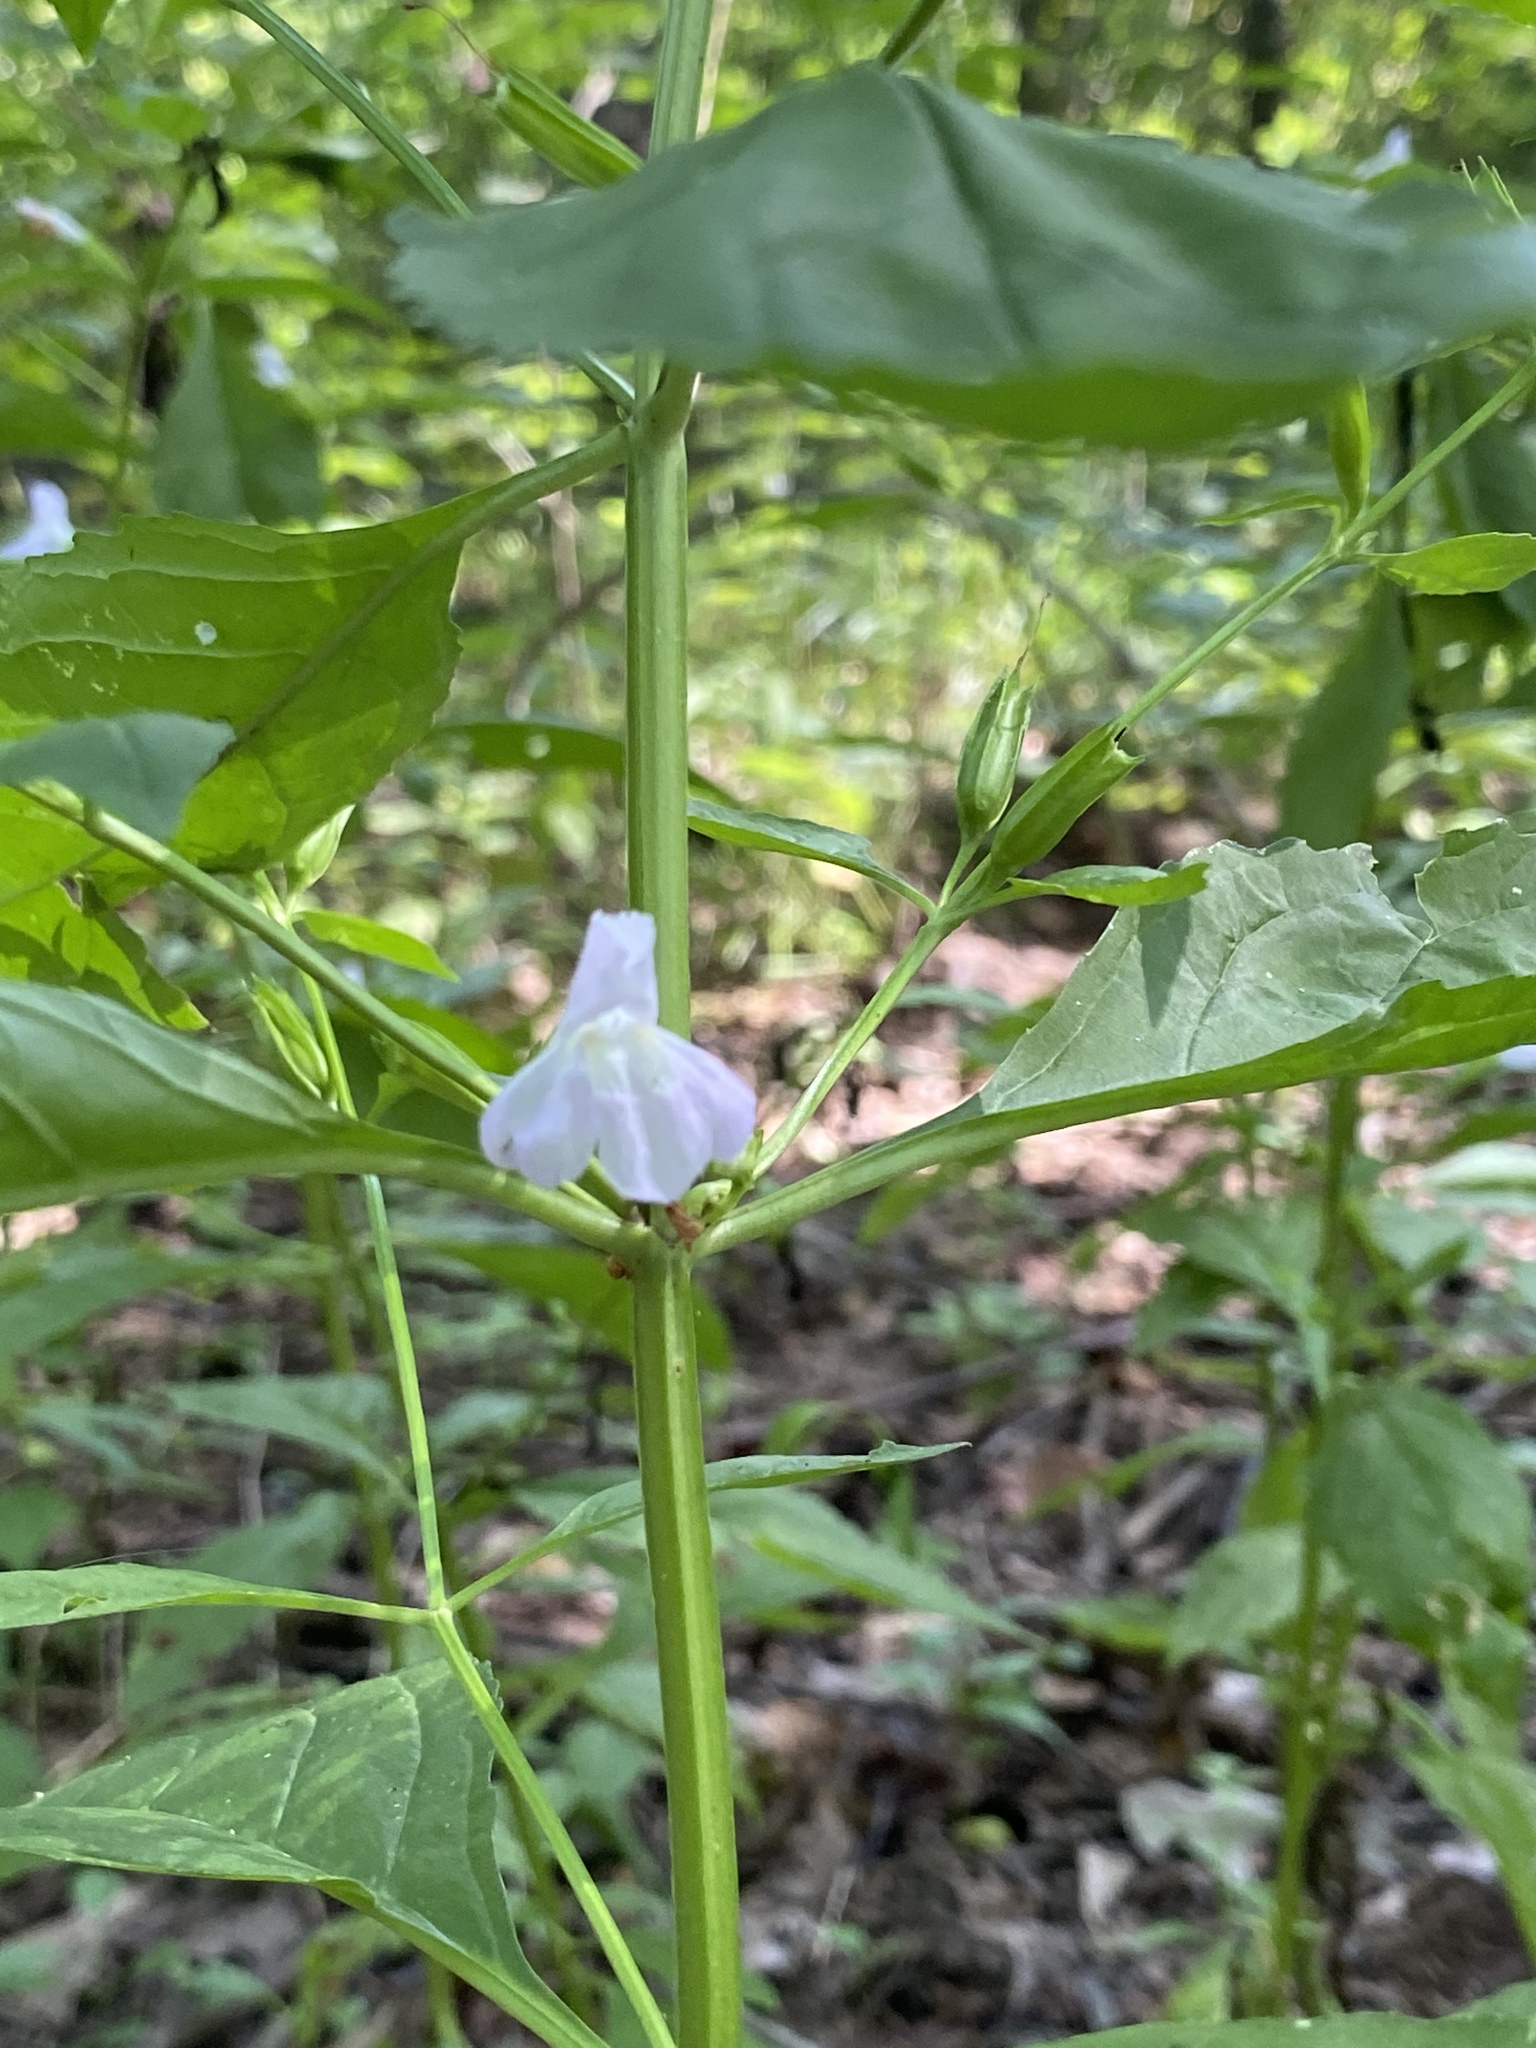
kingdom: Plantae
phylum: Tracheophyta
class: Magnoliopsida
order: Lamiales
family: Phrymaceae
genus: Mimulus
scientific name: Mimulus alatus
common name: Sharp-wing monkey-flower
